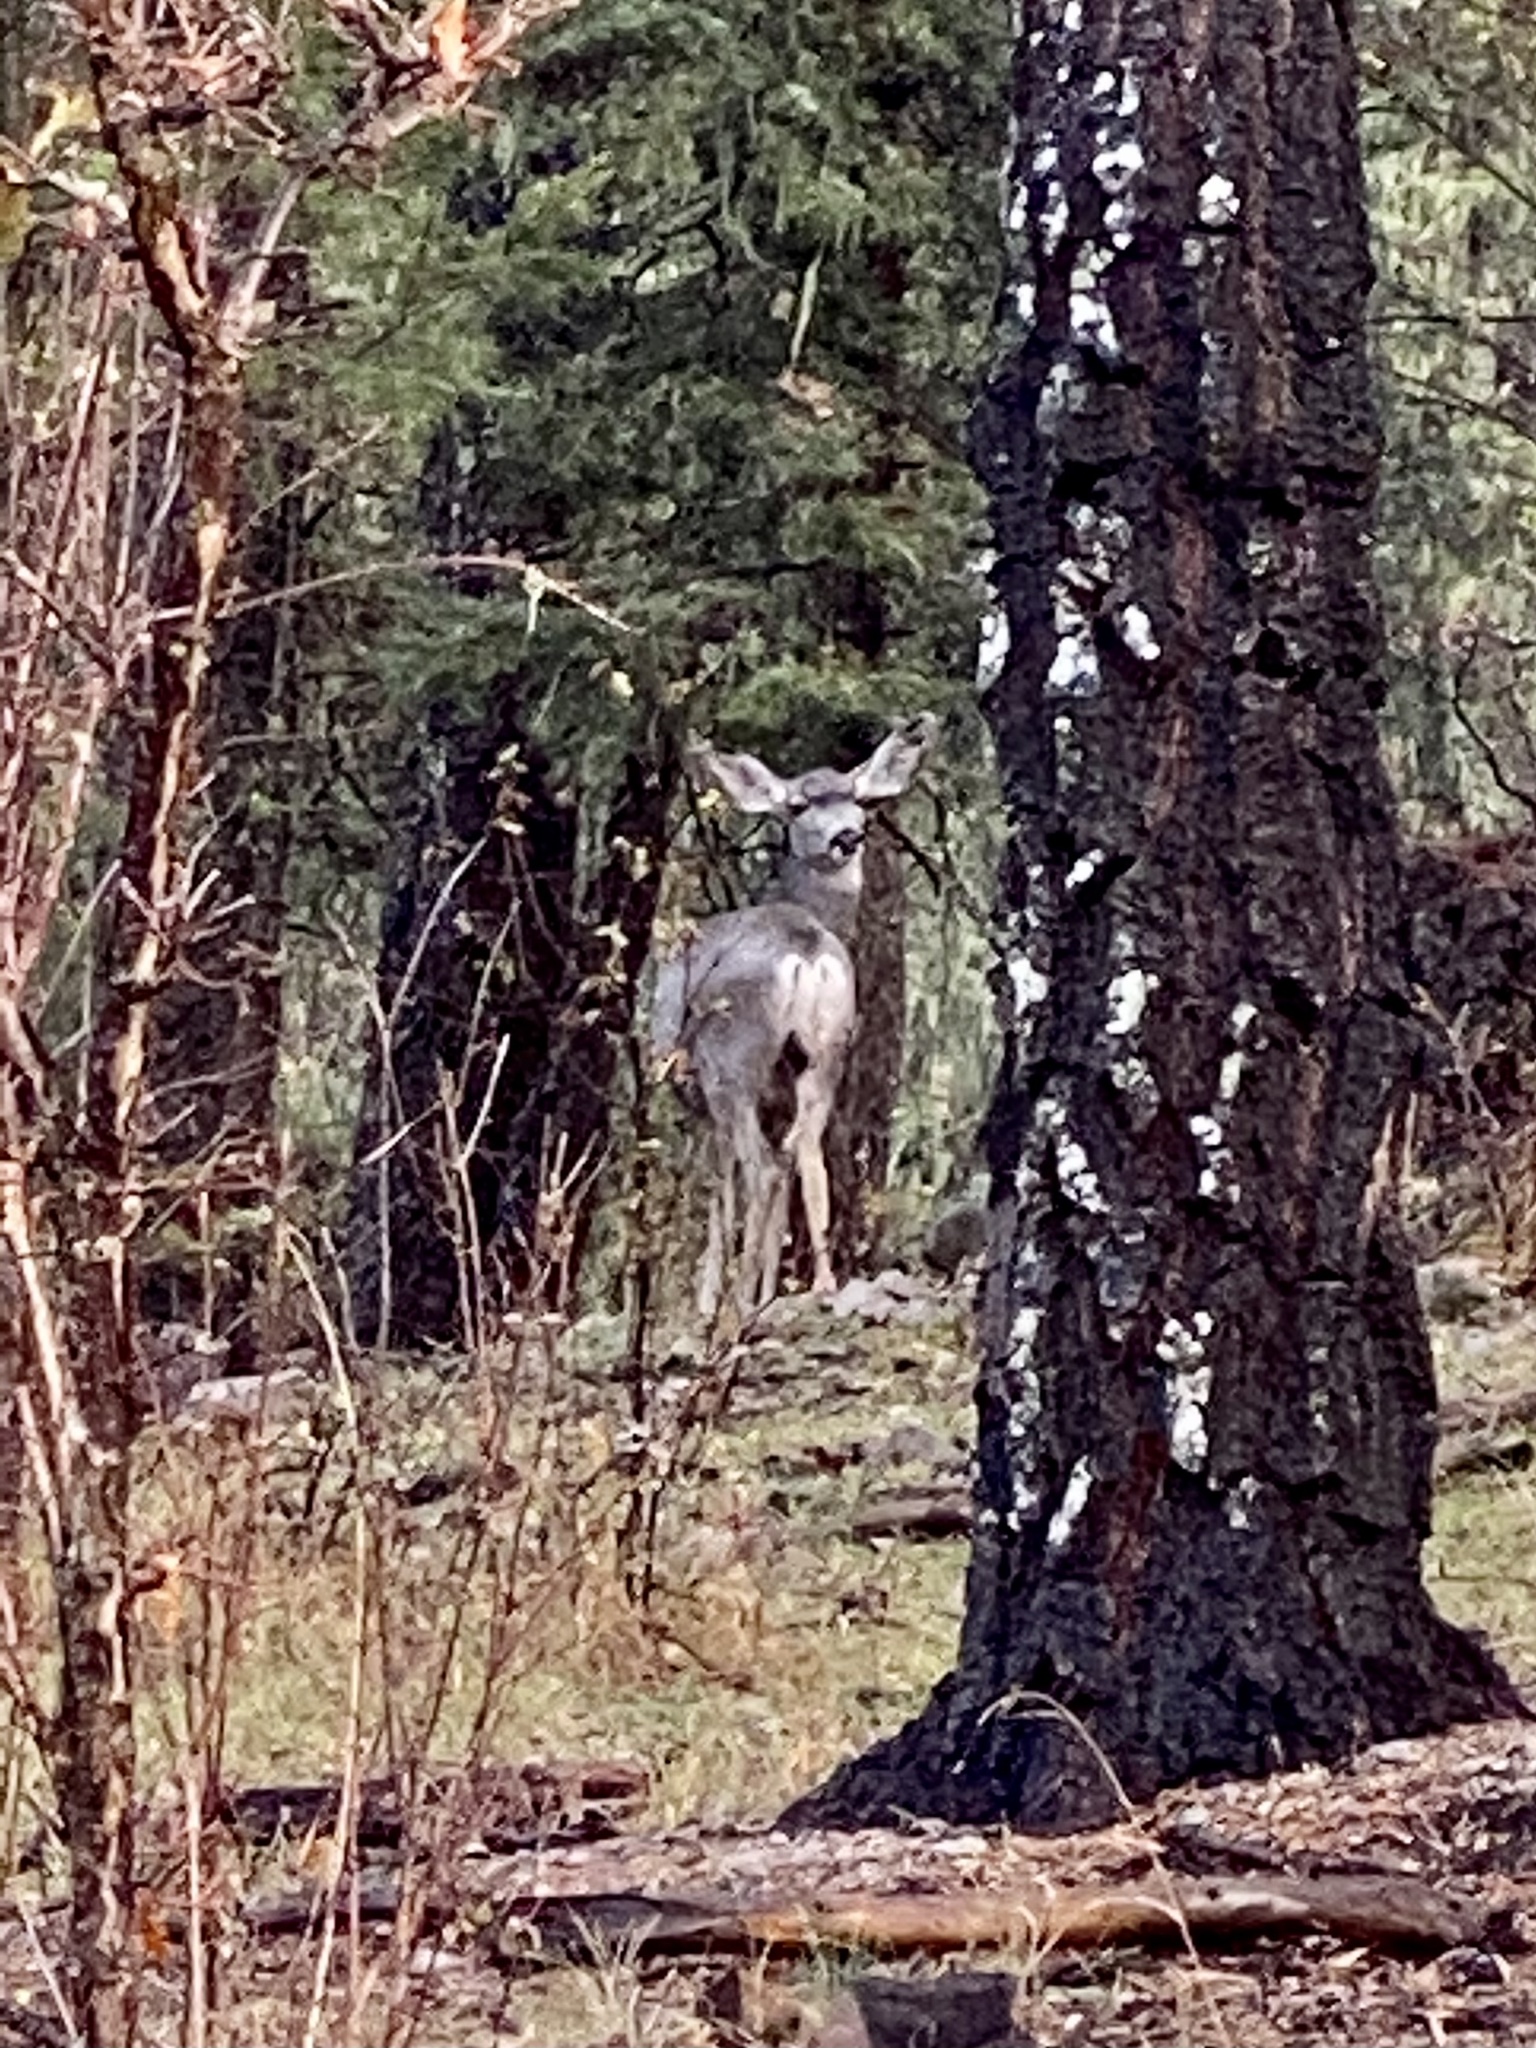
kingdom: Animalia
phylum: Chordata
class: Mammalia
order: Artiodactyla
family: Cervidae
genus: Odocoileus
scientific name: Odocoileus hemionus
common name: Mule deer
